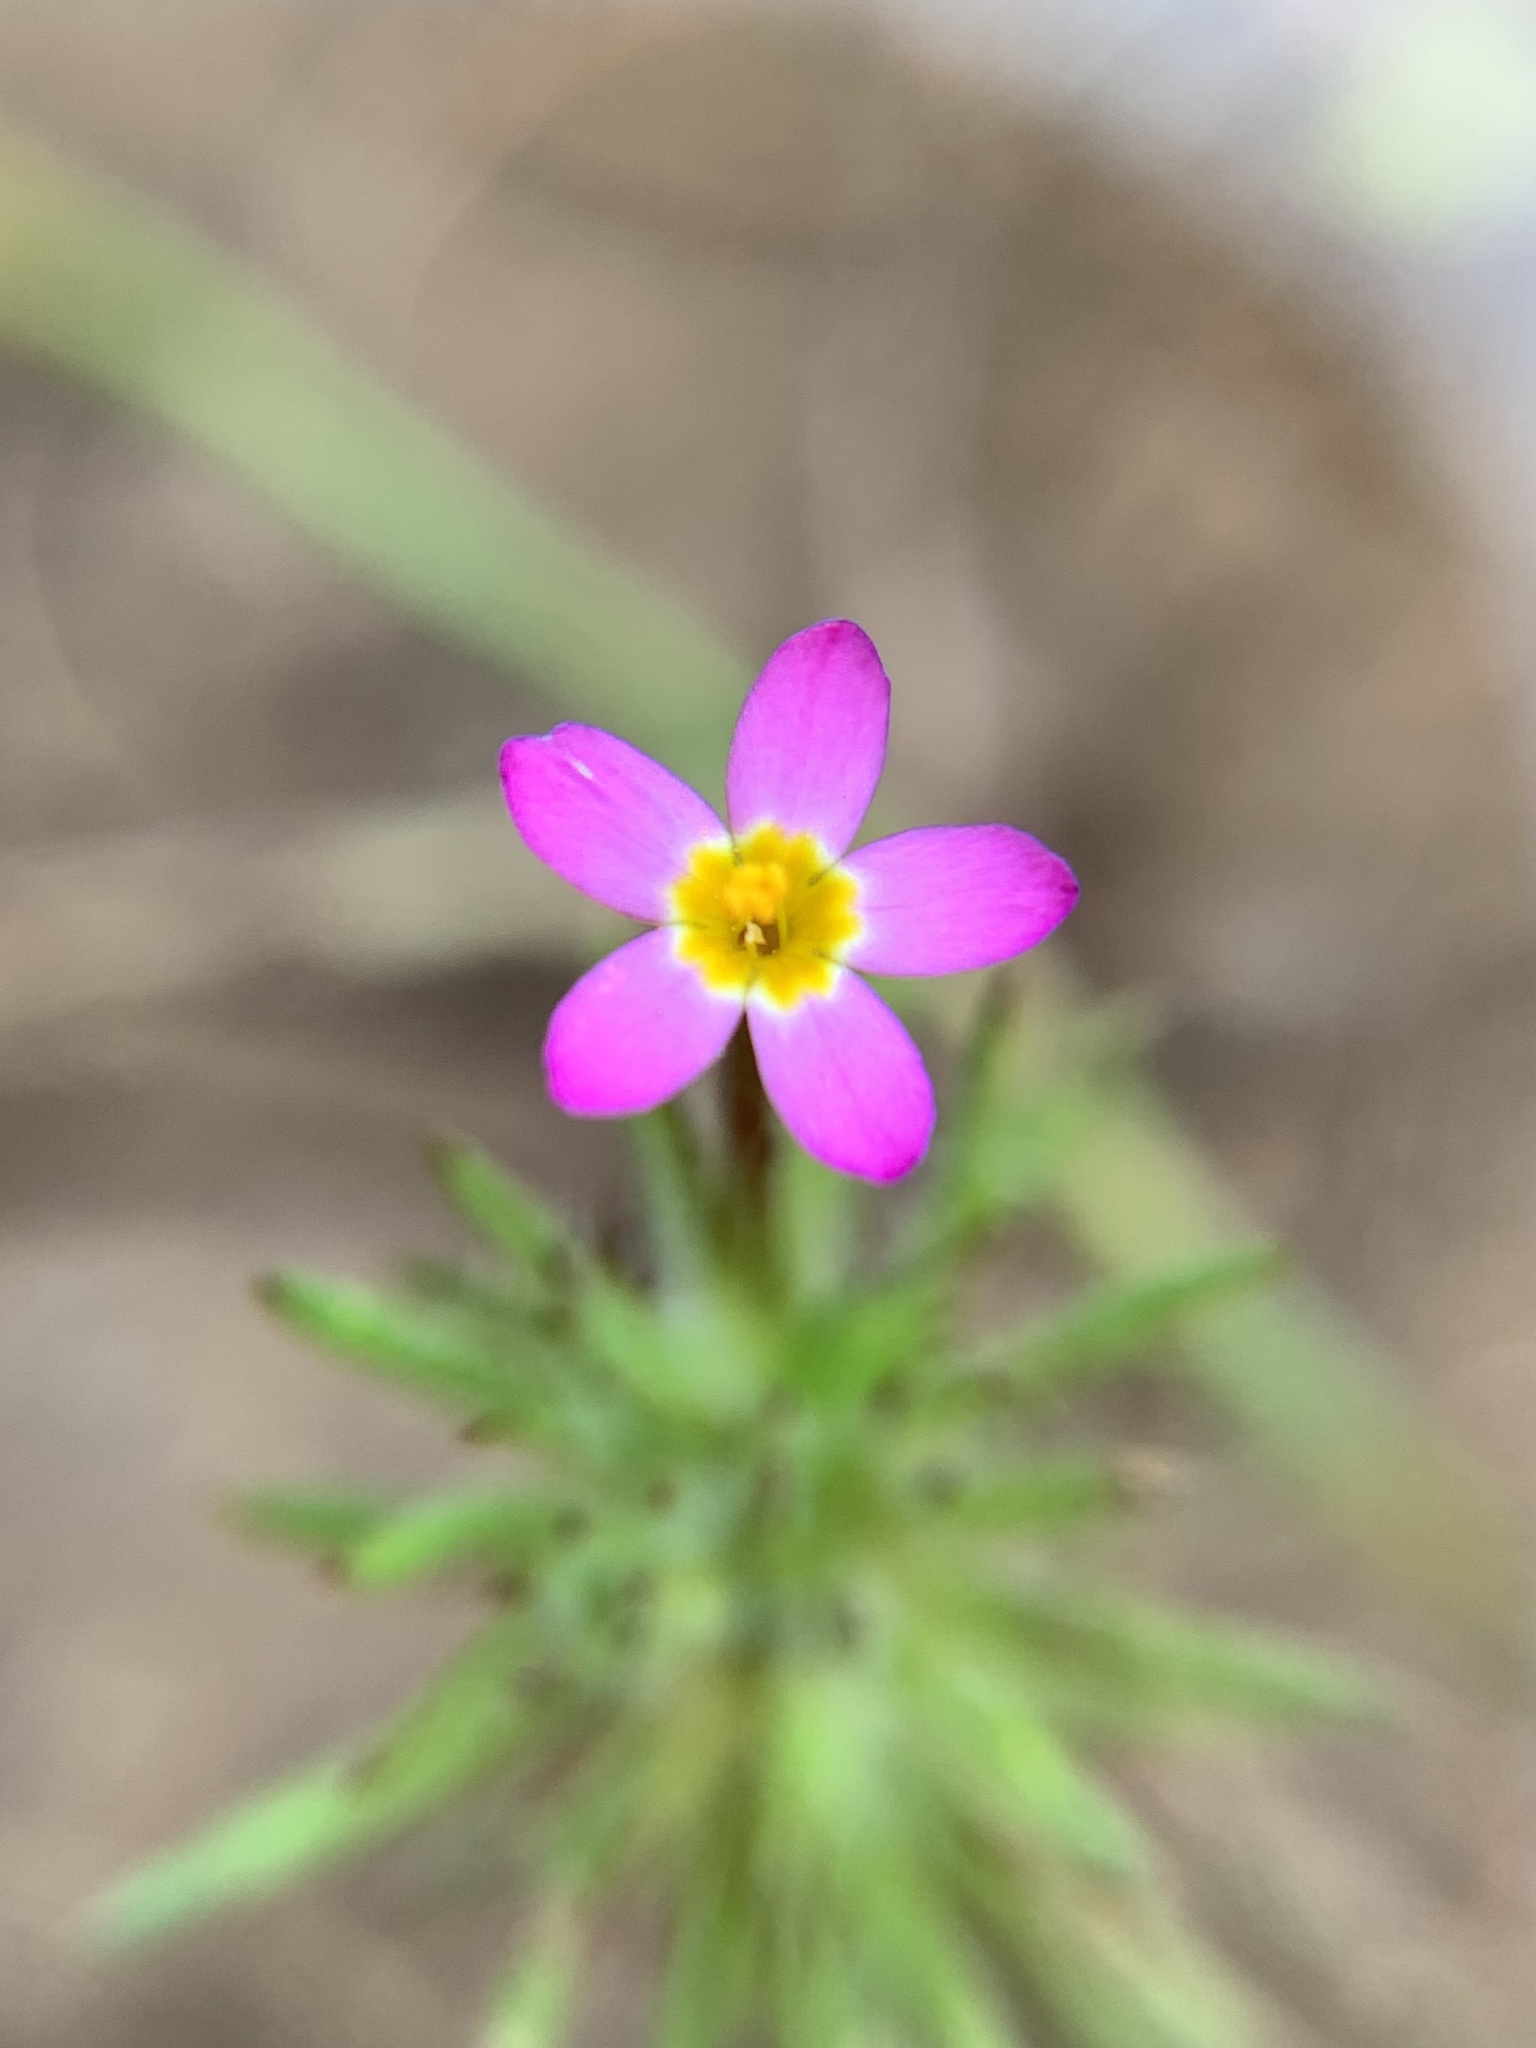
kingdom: Plantae
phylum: Tracheophyta
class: Magnoliopsida
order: Ericales
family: Polemoniaceae
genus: Leptosiphon
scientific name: Leptosiphon bicolor
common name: True babystars
